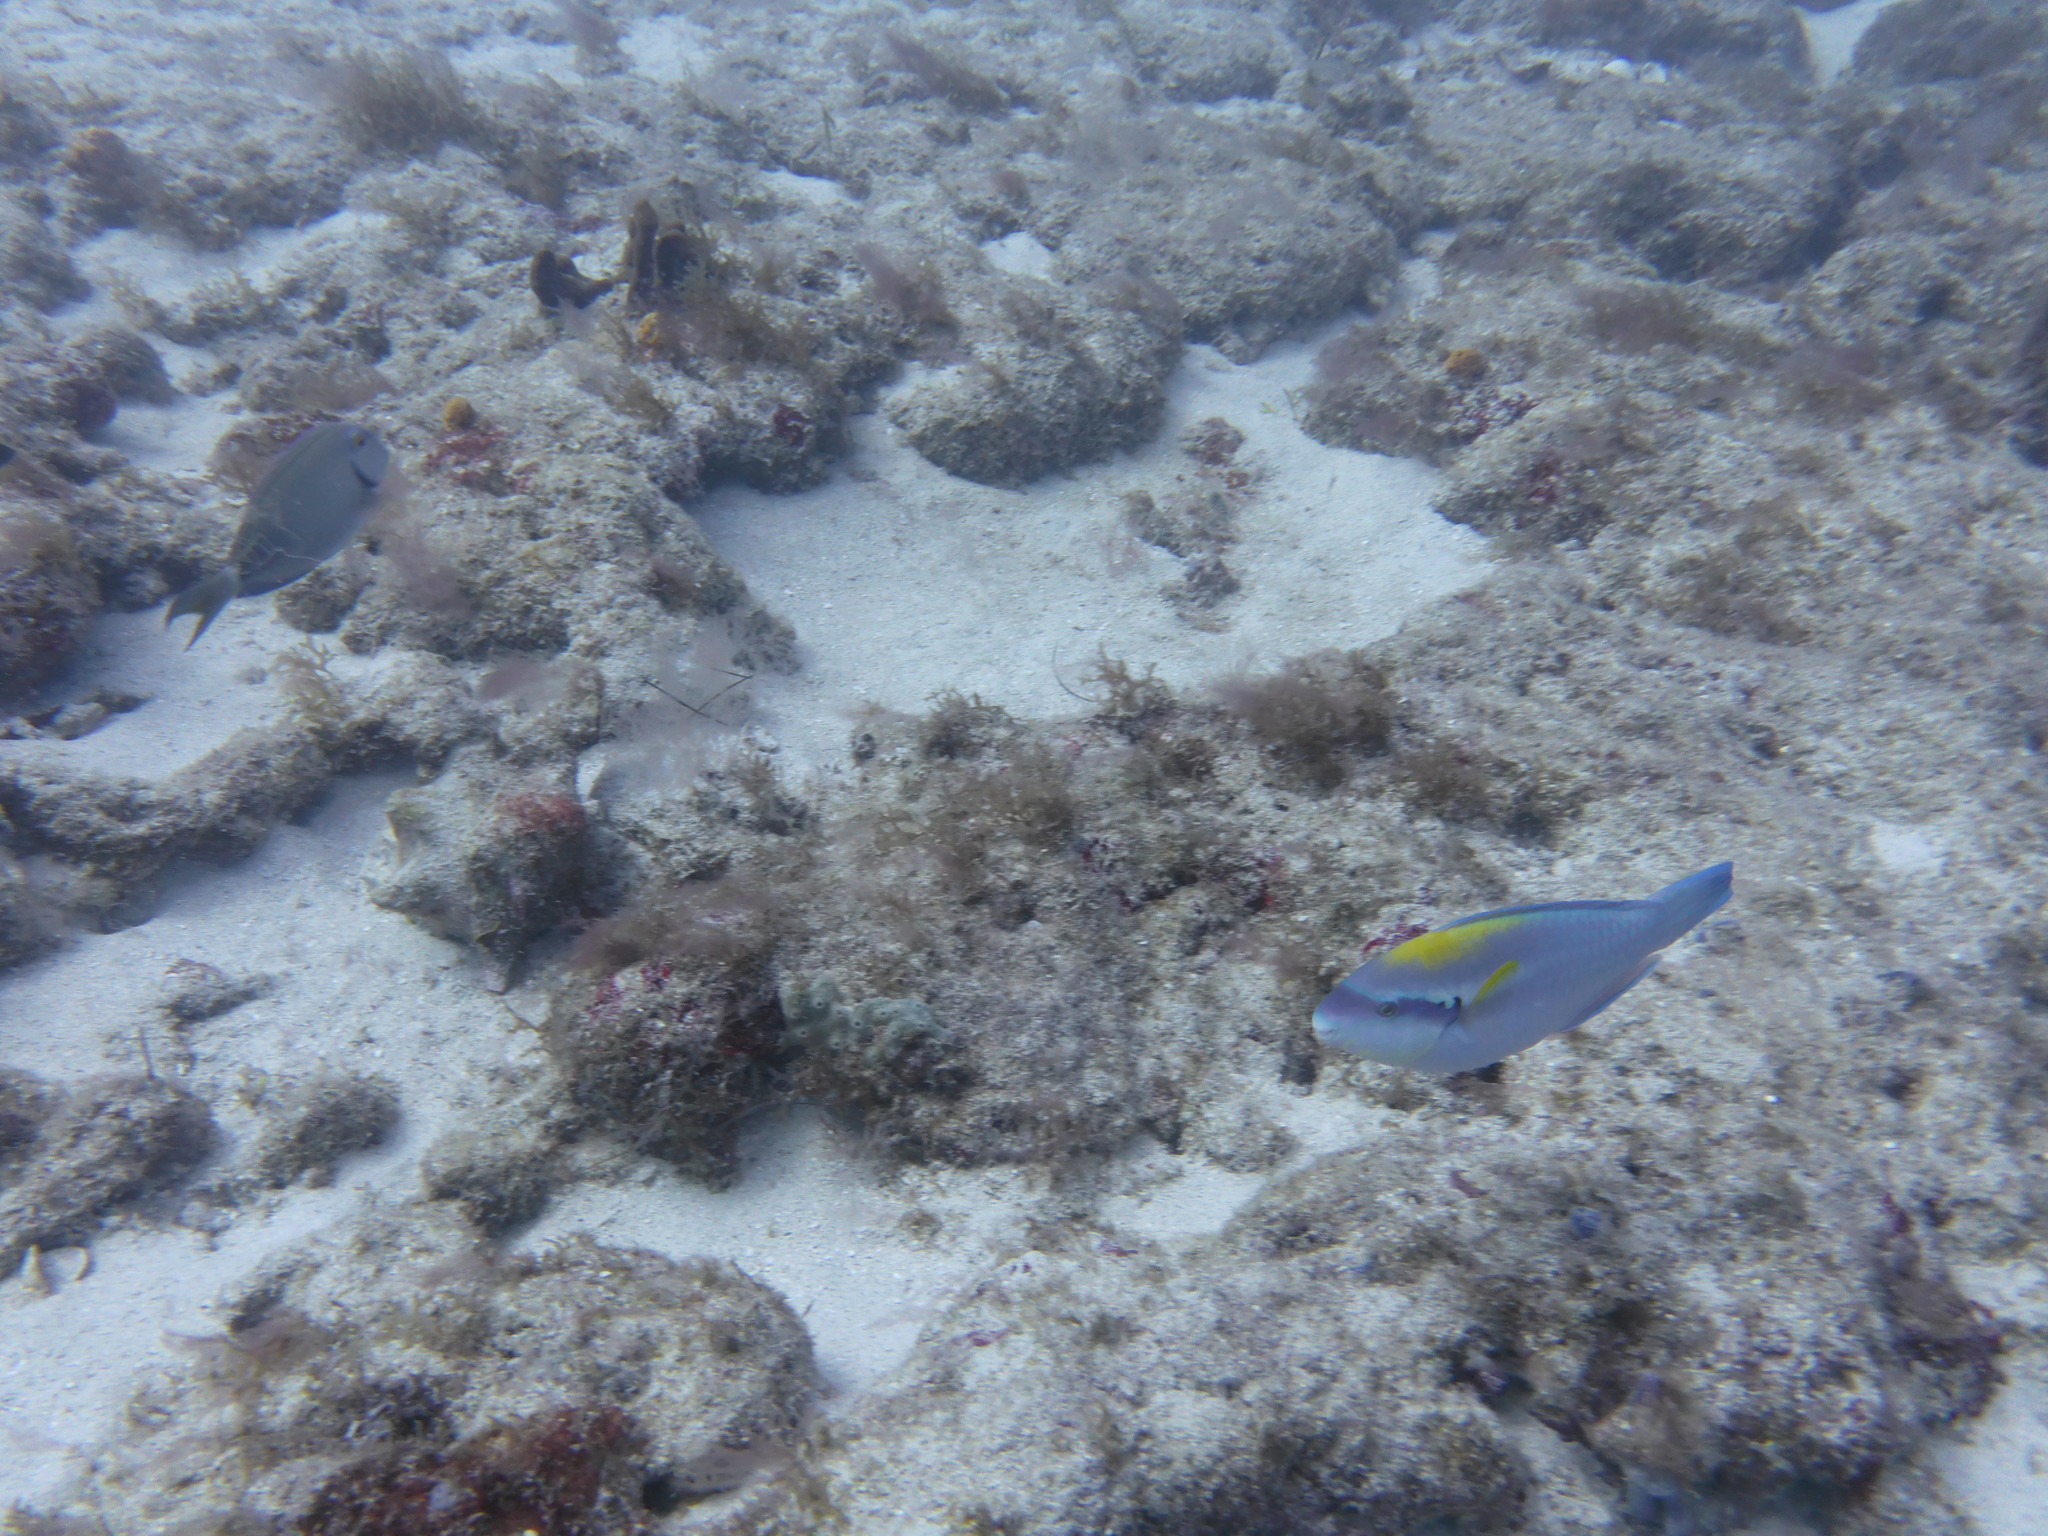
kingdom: Animalia
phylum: Chordata
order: Perciformes
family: Scaridae
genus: Scarus
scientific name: Scarus iseri
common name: Striped parrotfish
